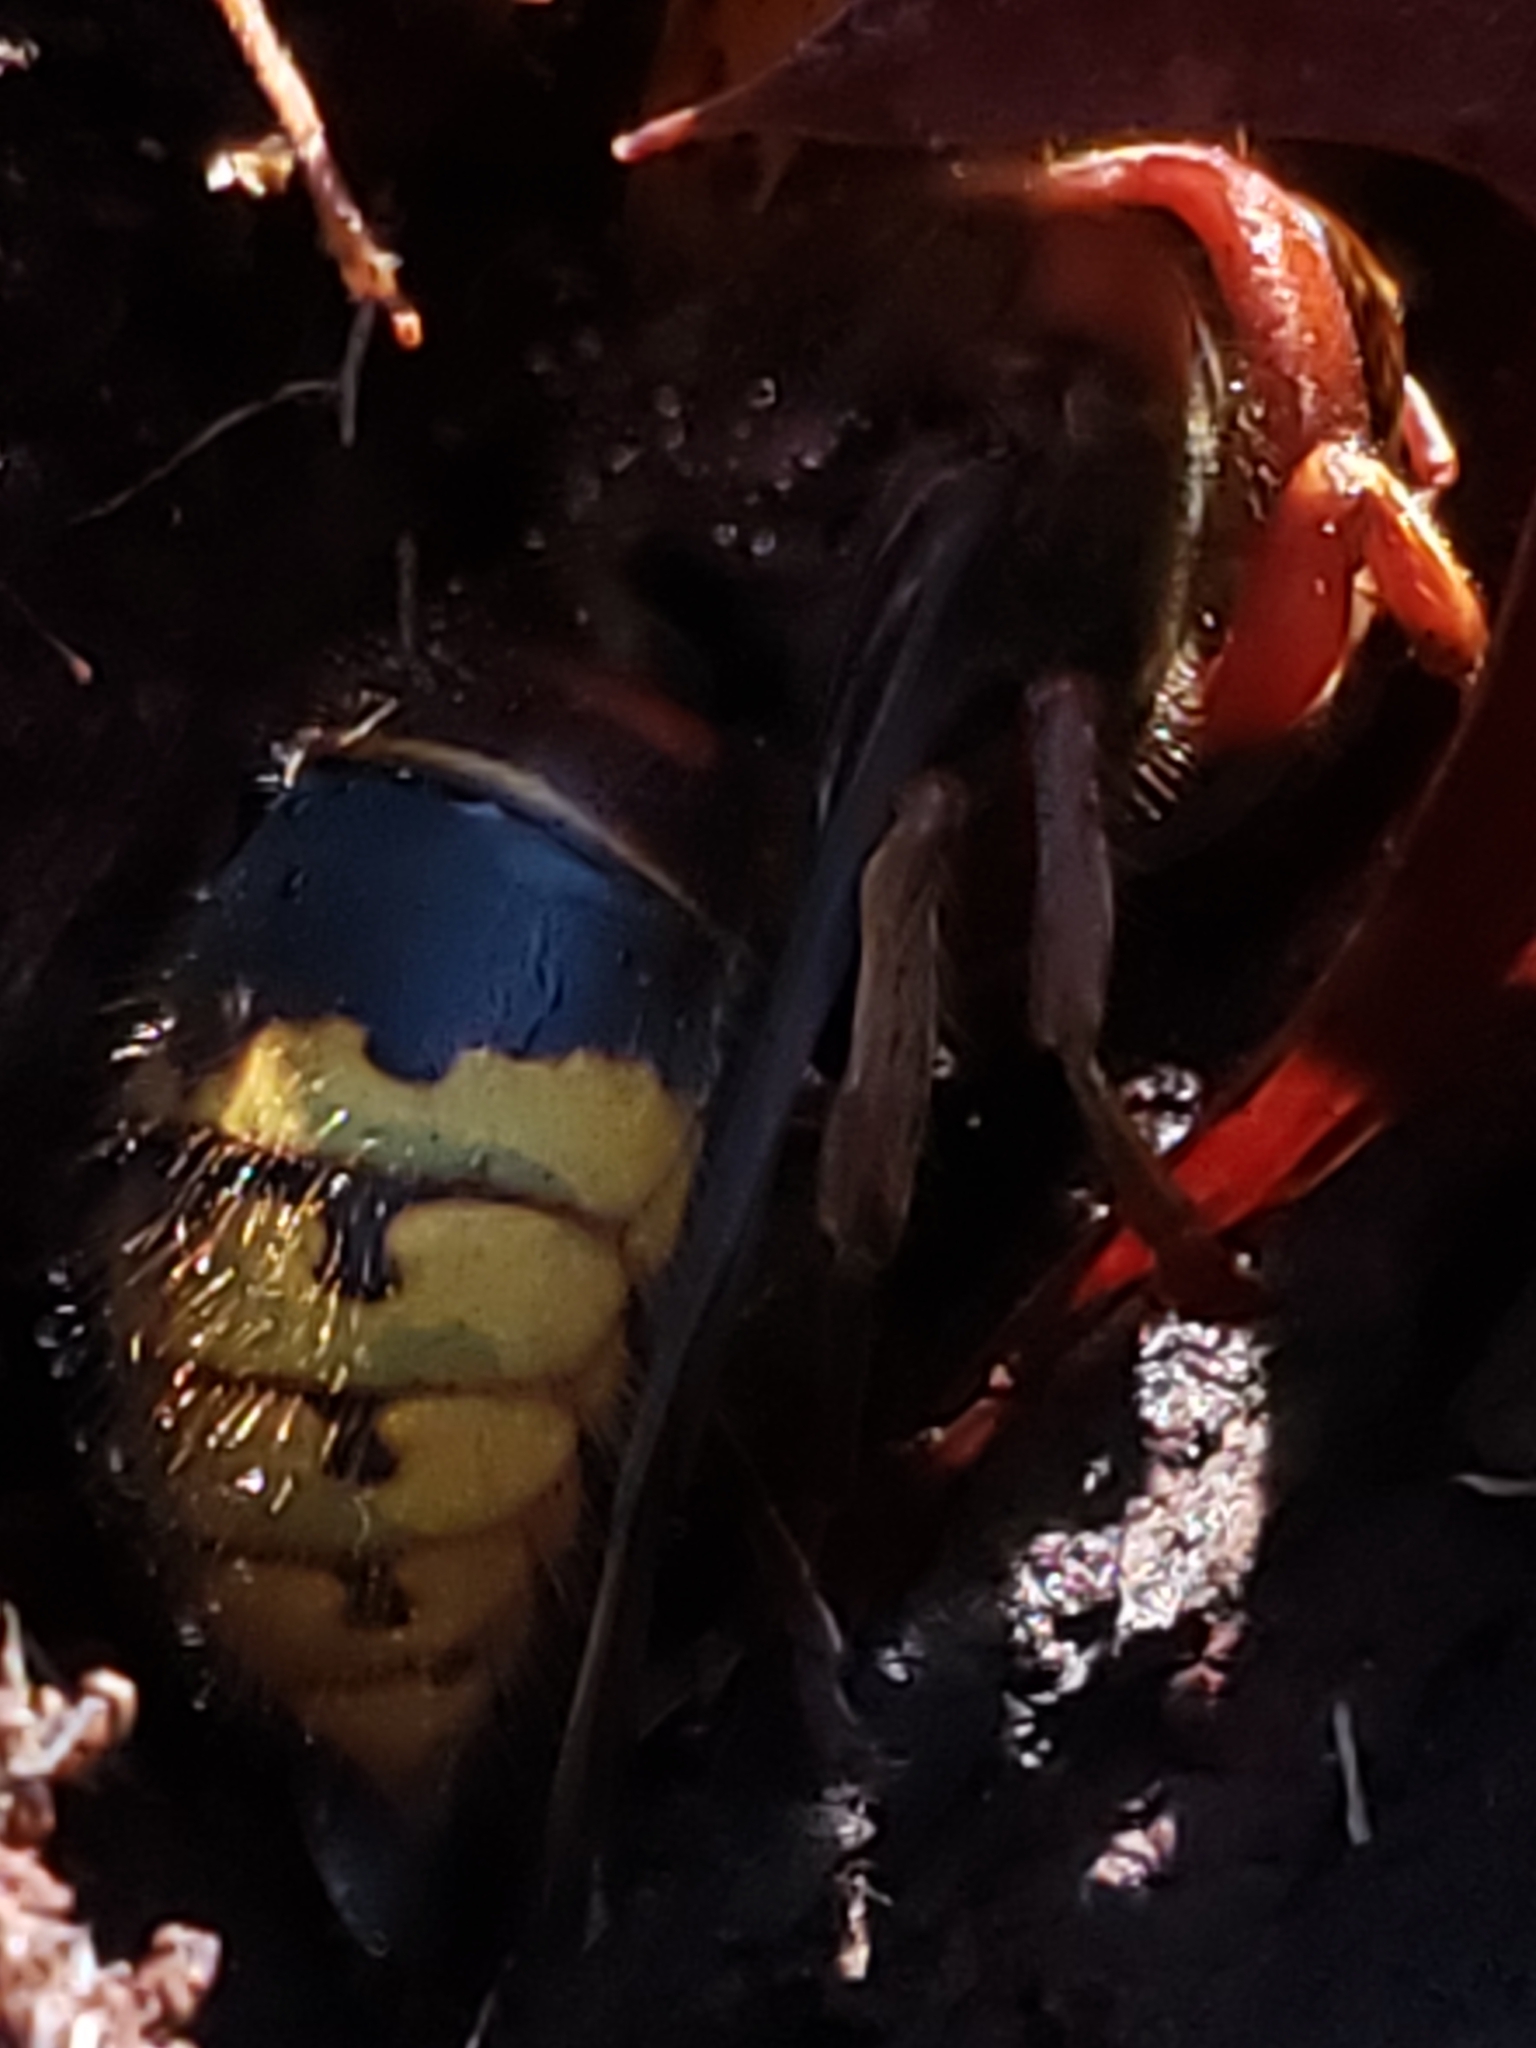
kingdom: Animalia
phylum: Arthropoda
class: Insecta
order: Hymenoptera
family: Vespidae
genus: Vespa
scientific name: Vespa crabro
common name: Hornet
